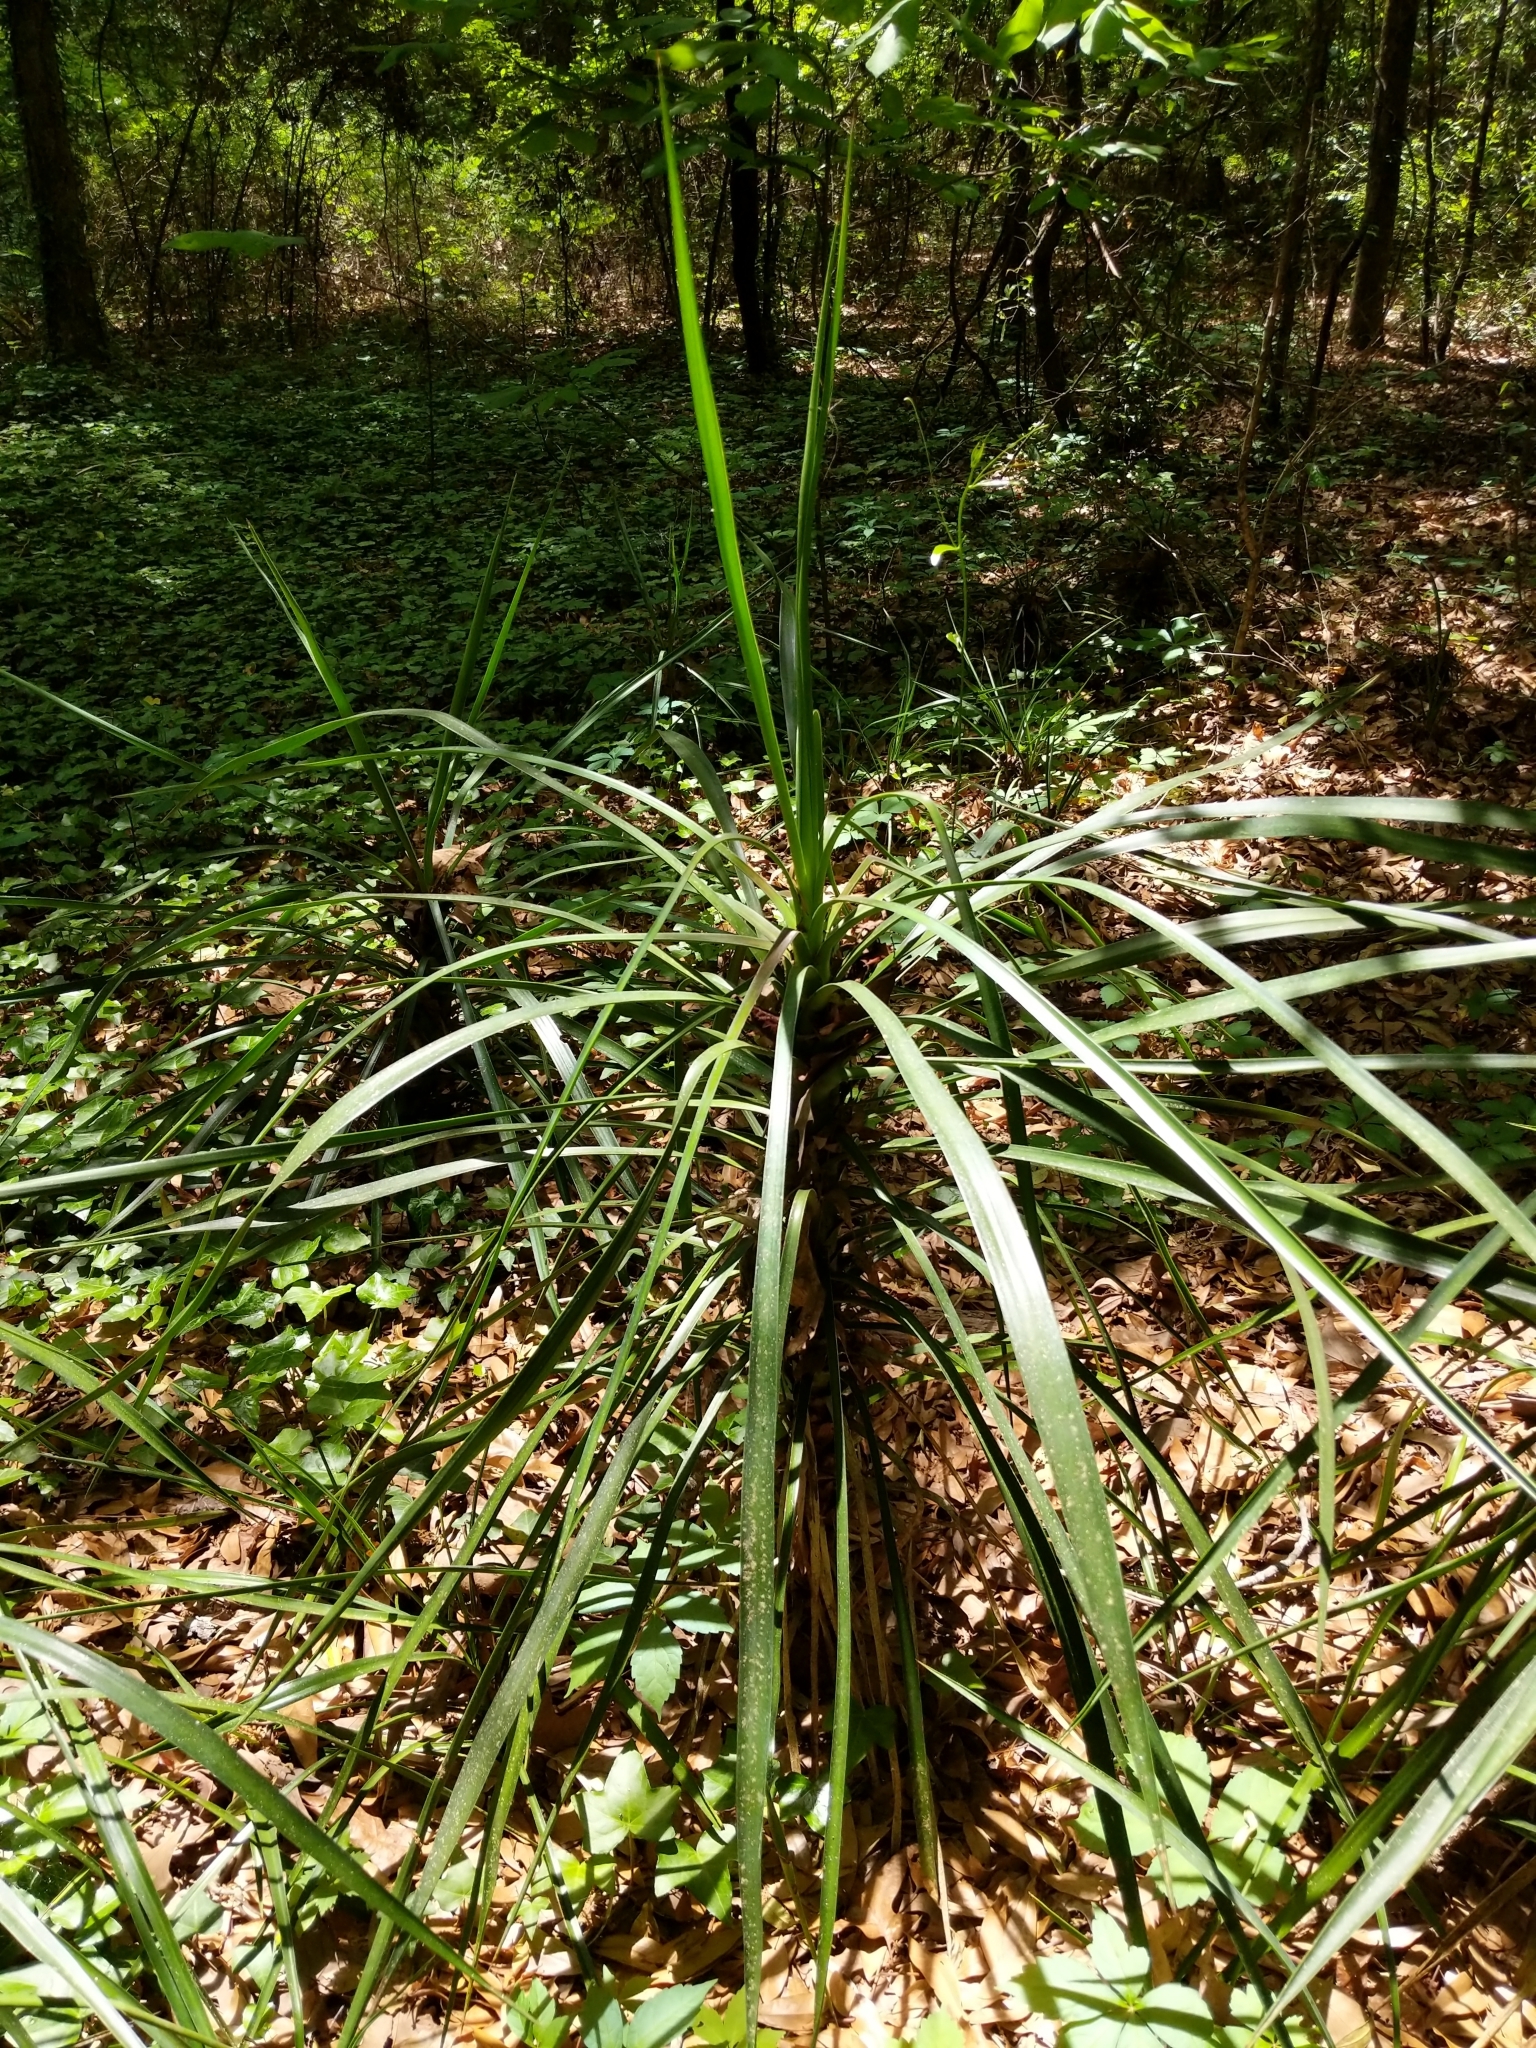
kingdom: Plantae
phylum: Tracheophyta
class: Liliopsida
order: Asparagales
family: Asparagaceae
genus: Yucca
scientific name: Yucca aloifolia
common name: Aloe yucca
